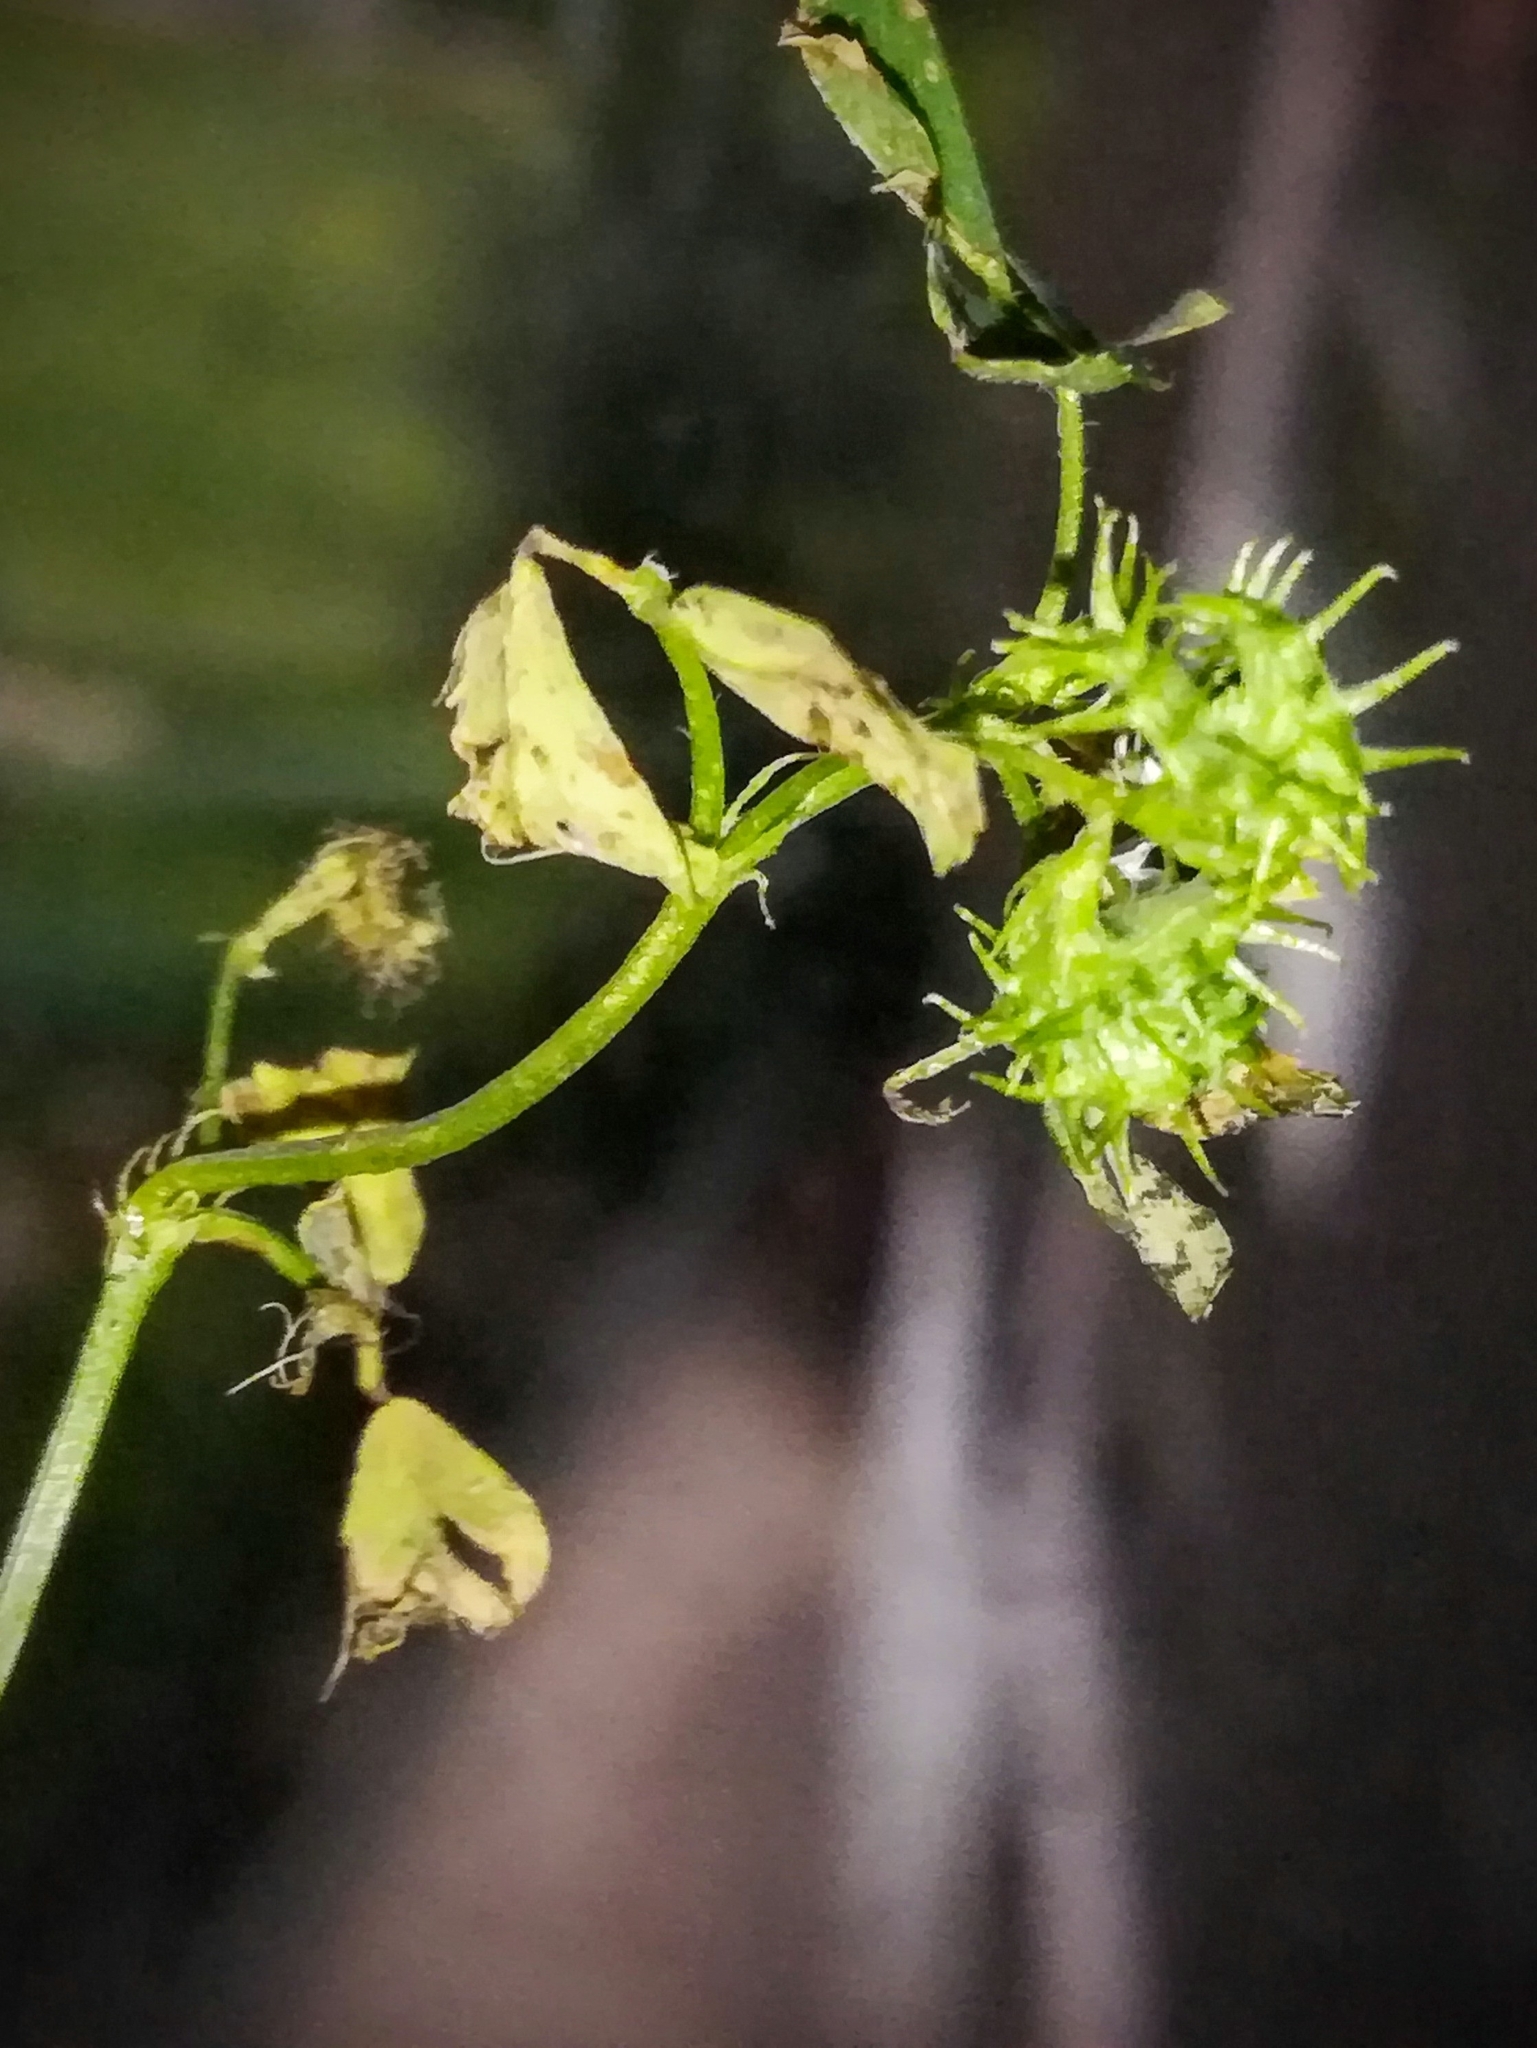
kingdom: Plantae
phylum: Tracheophyta
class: Magnoliopsida
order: Fabales
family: Fabaceae
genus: Medicago
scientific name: Medicago polymorpha
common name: Burclover
